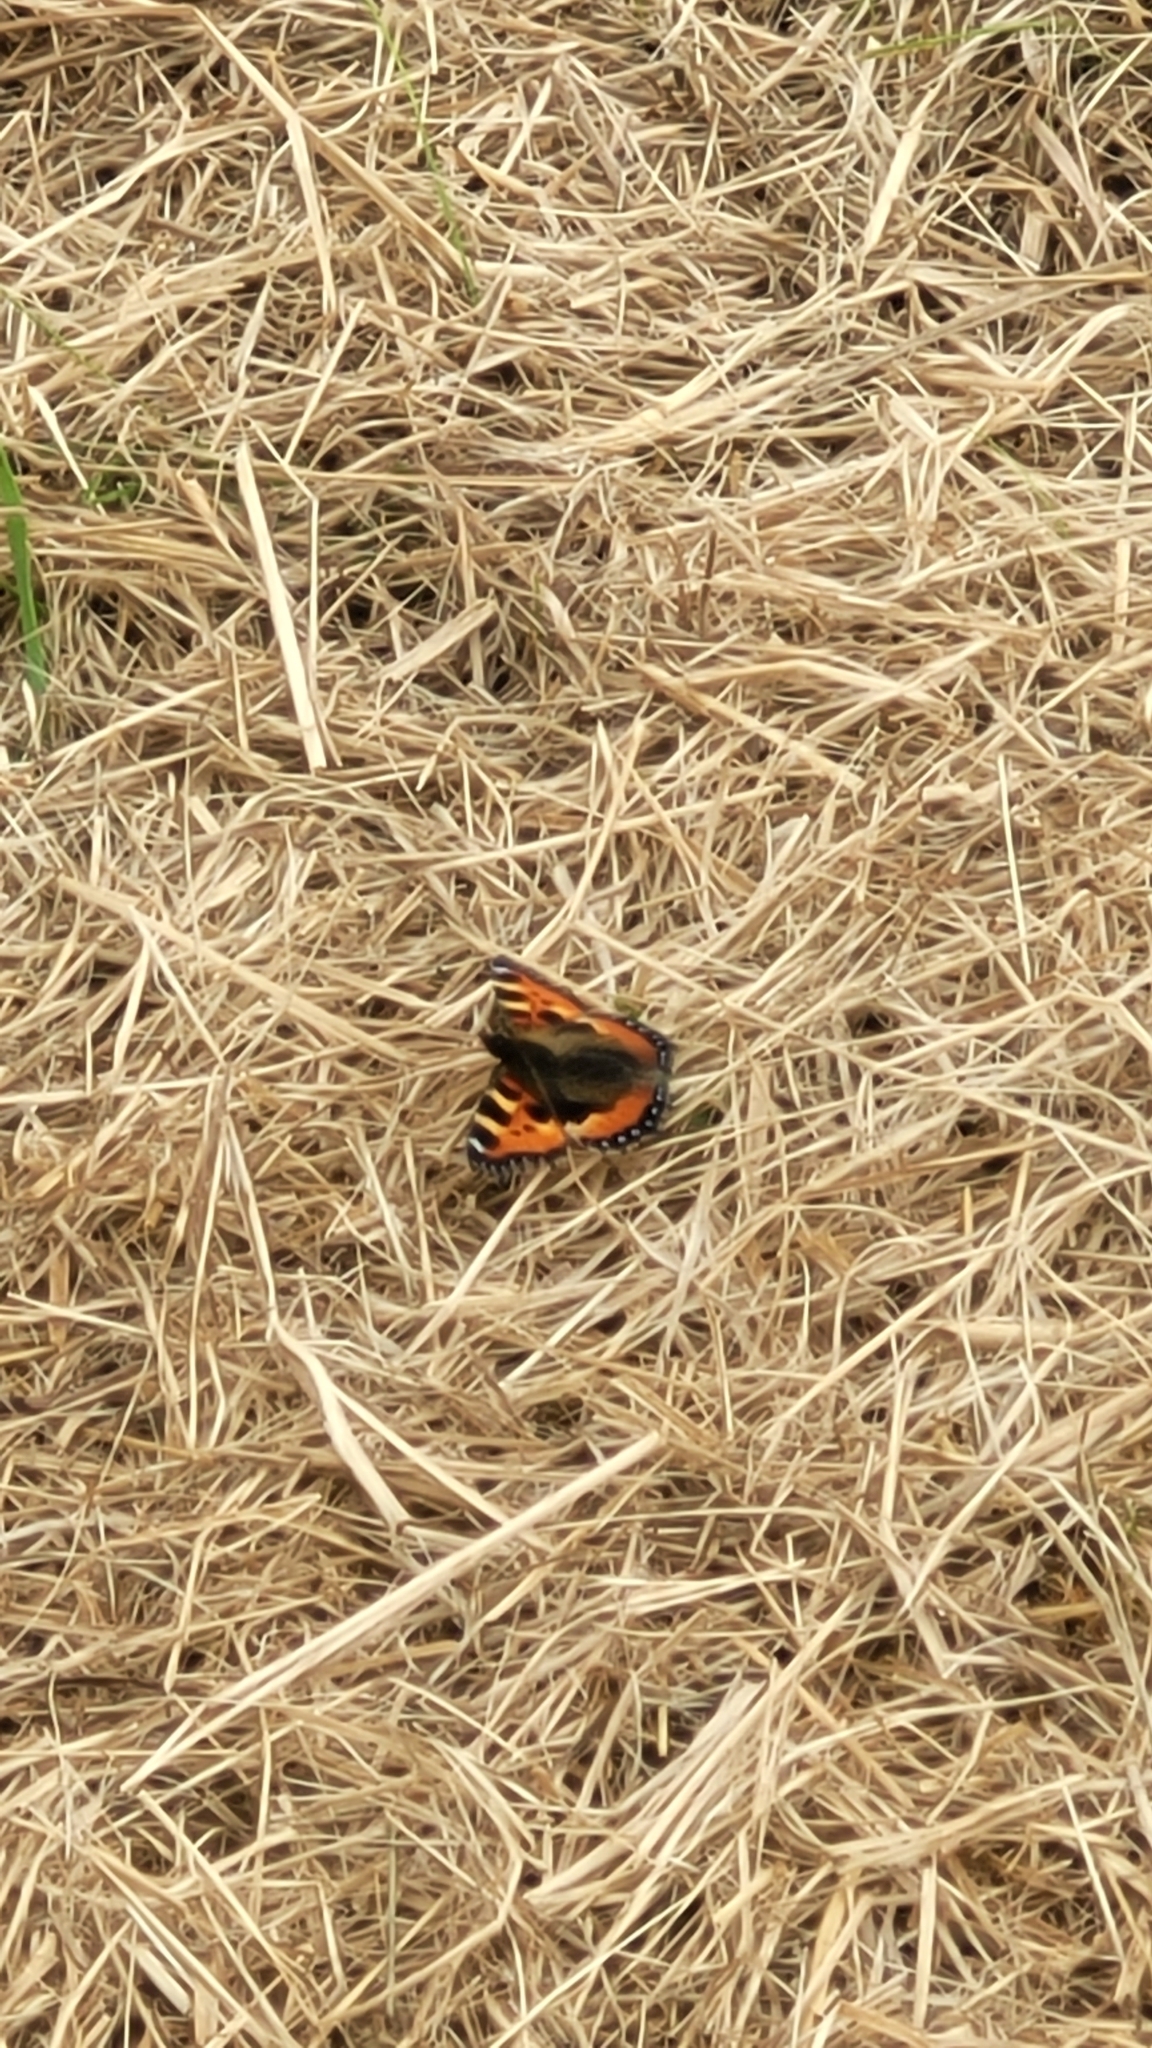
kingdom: Animalia
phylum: Arthropoda
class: Insecta
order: Lepidoptera
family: Nymphalidae
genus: Aglais
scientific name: Aglais urticae
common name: Small tortoiseshell
